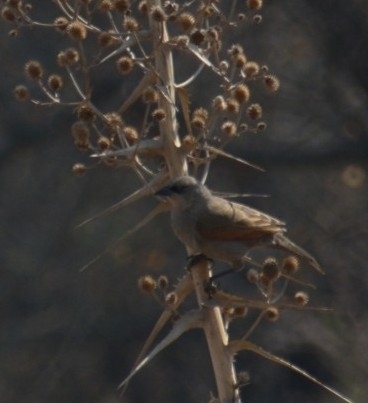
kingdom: Animalia
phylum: Chordata
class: Aves
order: Passeriformes
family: Icteridae
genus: Agelaioides
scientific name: Agelaioides badius
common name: Baywing
